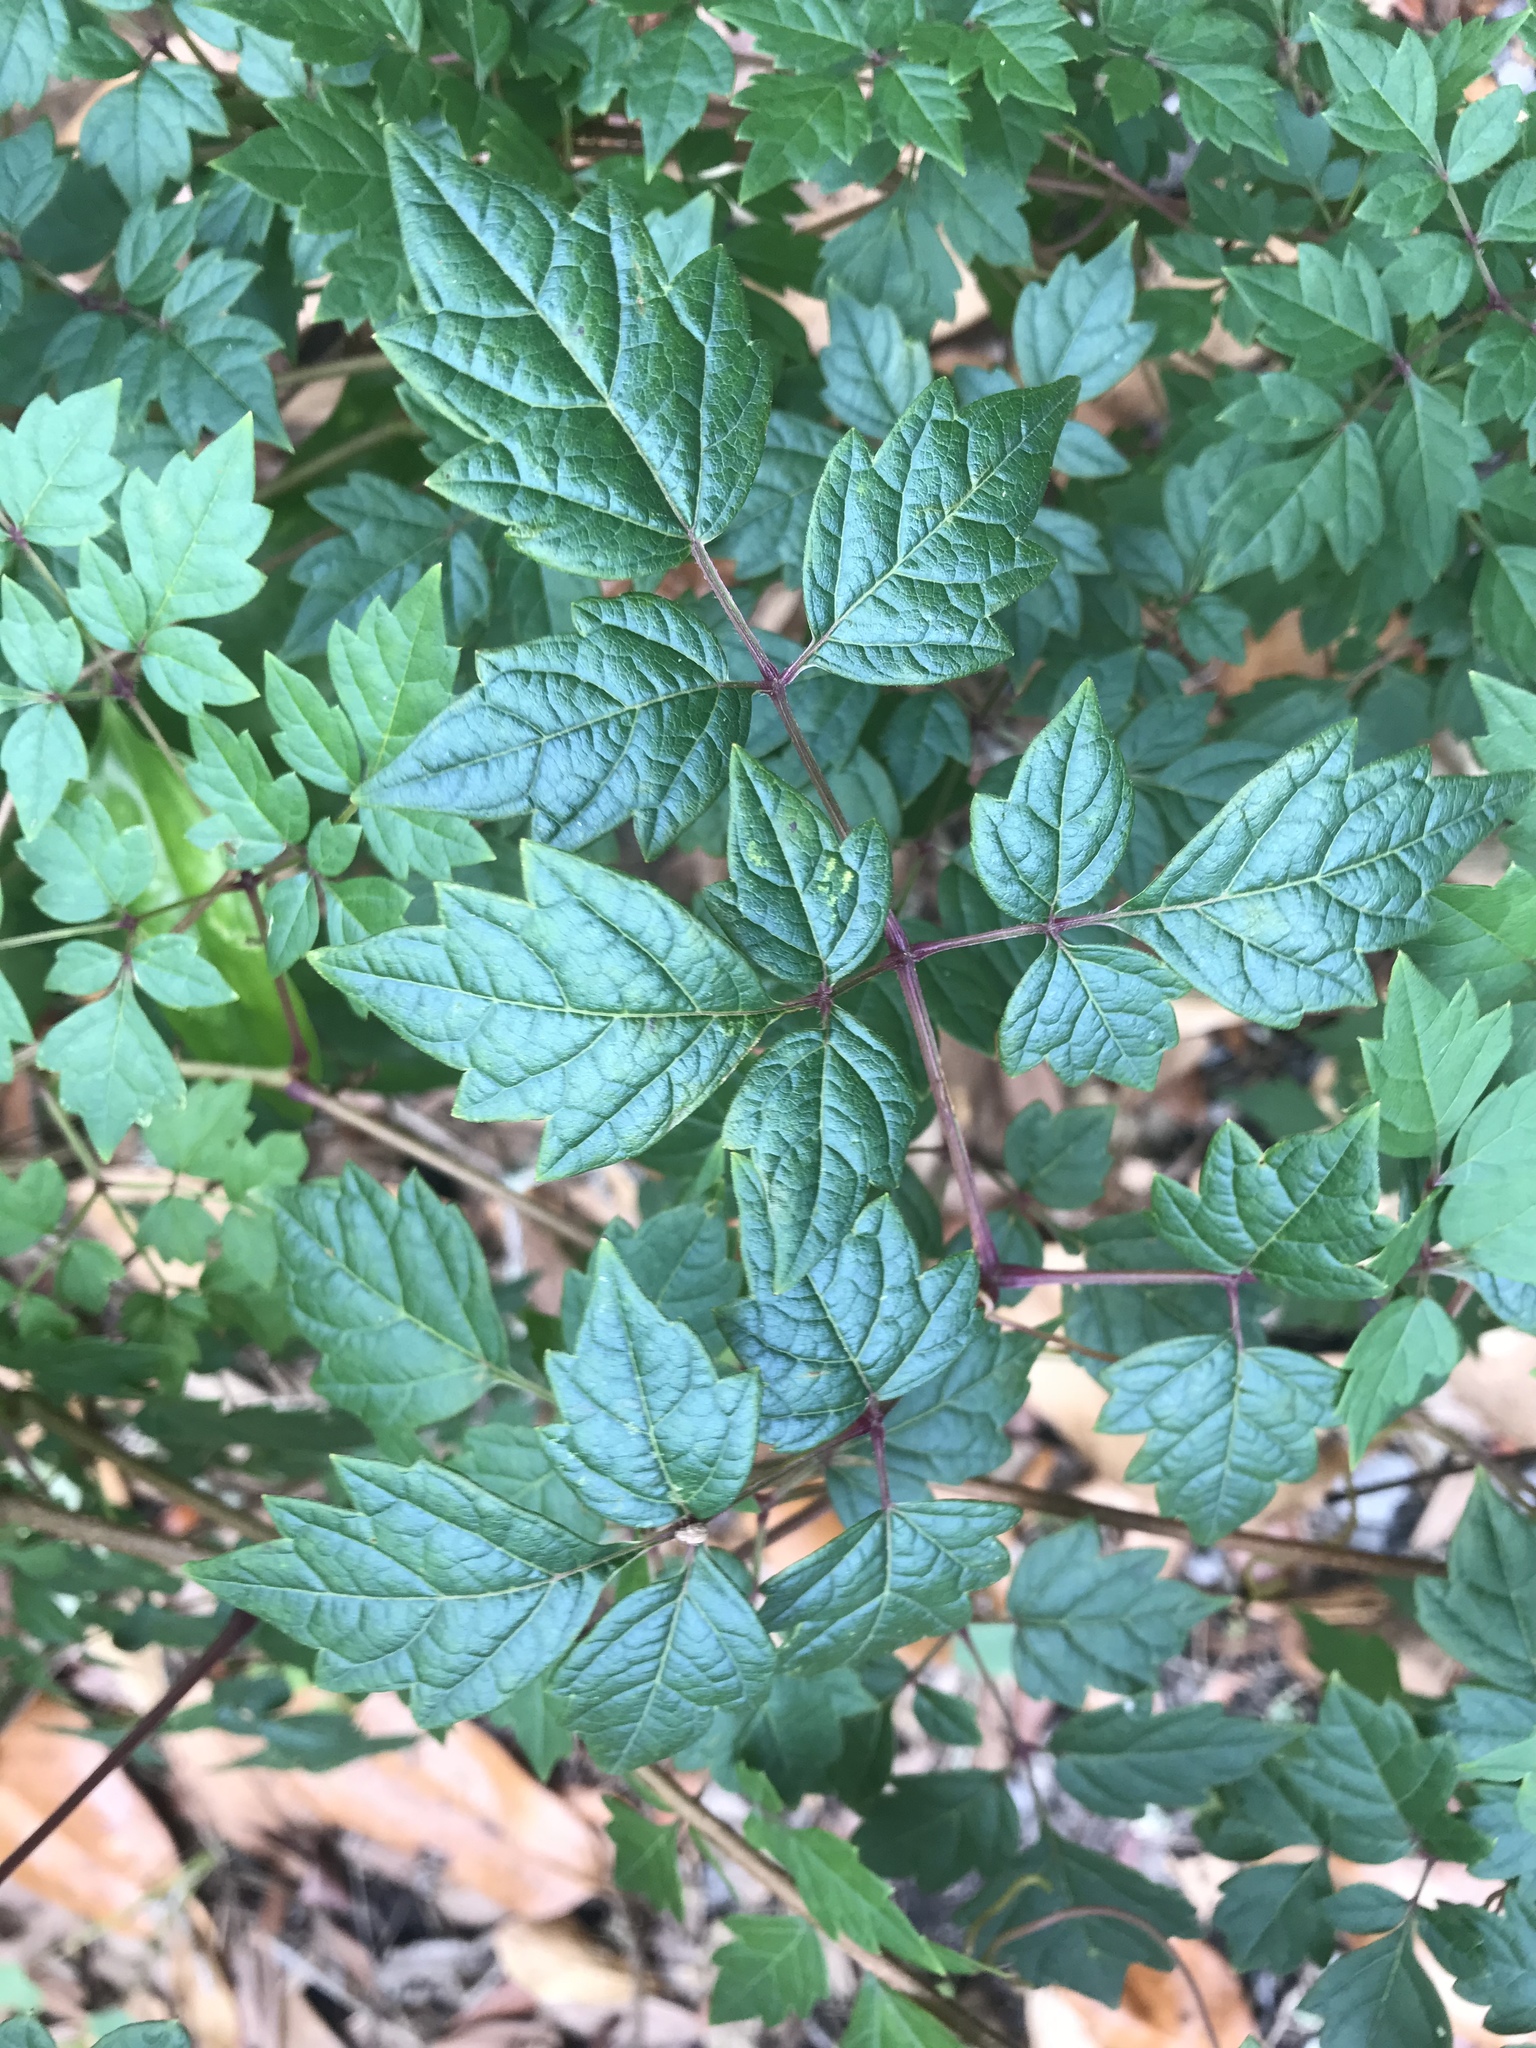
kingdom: Plantae
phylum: Tracheophyta
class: Magnoliopsida
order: Vitales
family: Vitaceae
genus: Nekemias
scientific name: Nekemias arborea
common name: Peppervine
